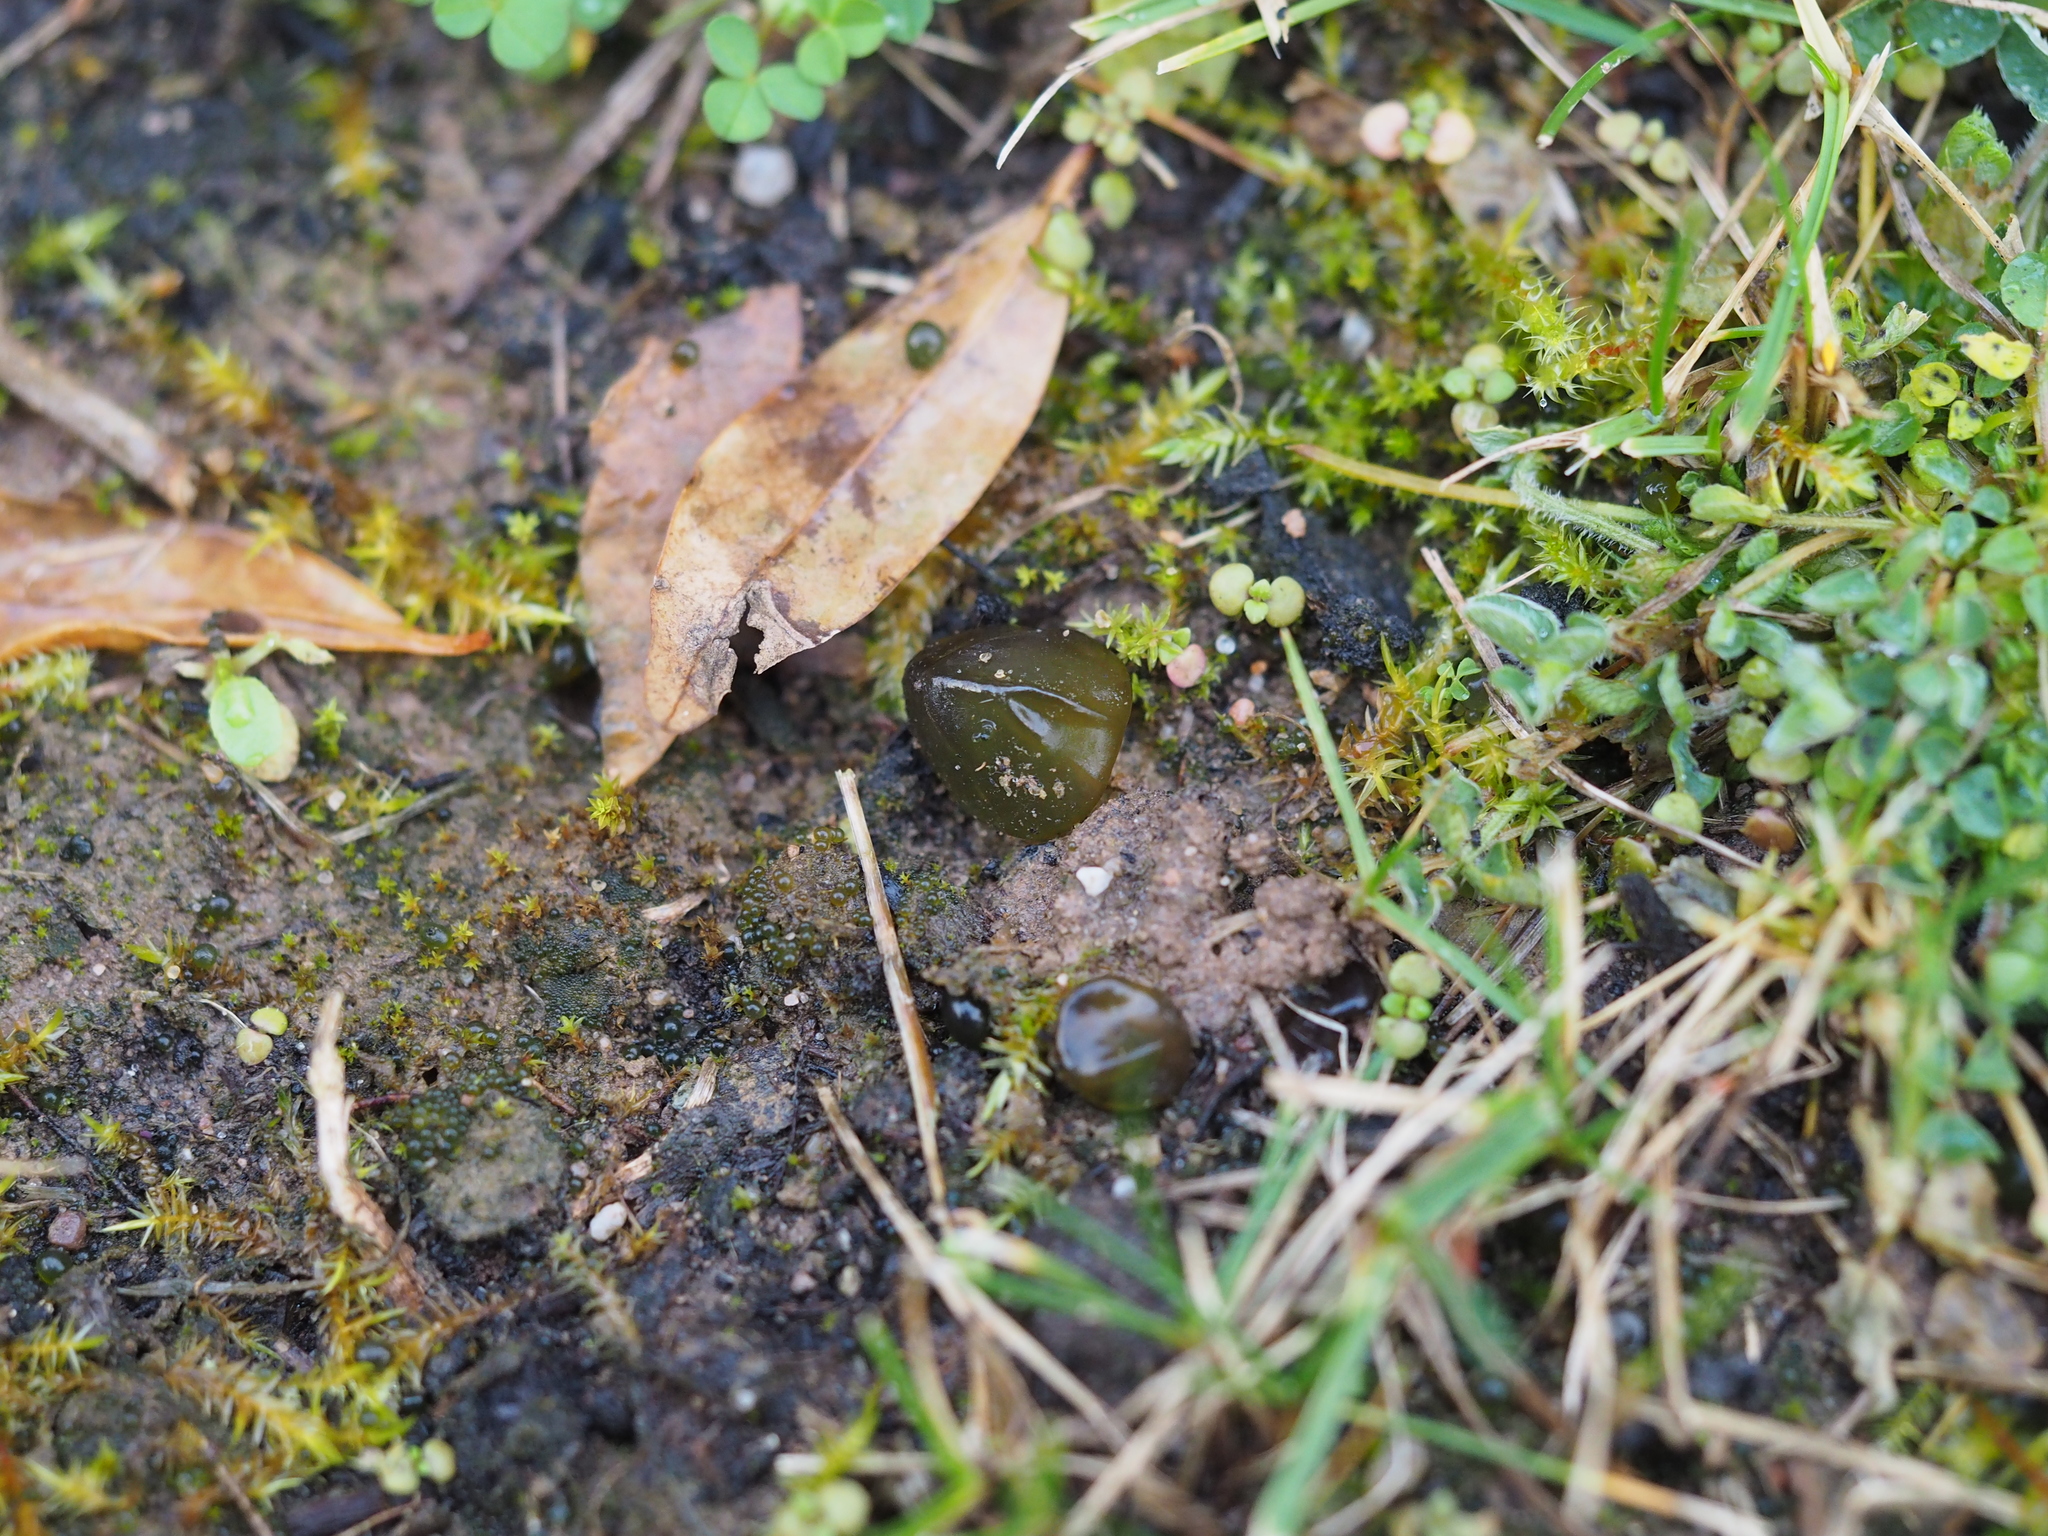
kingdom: Bacteria
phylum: Cyanobacteria
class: Cyanobacteriia
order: Cyanobacteriales
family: Nostocaceae
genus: Nostoc
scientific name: Nostoc commune
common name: Star jelly
